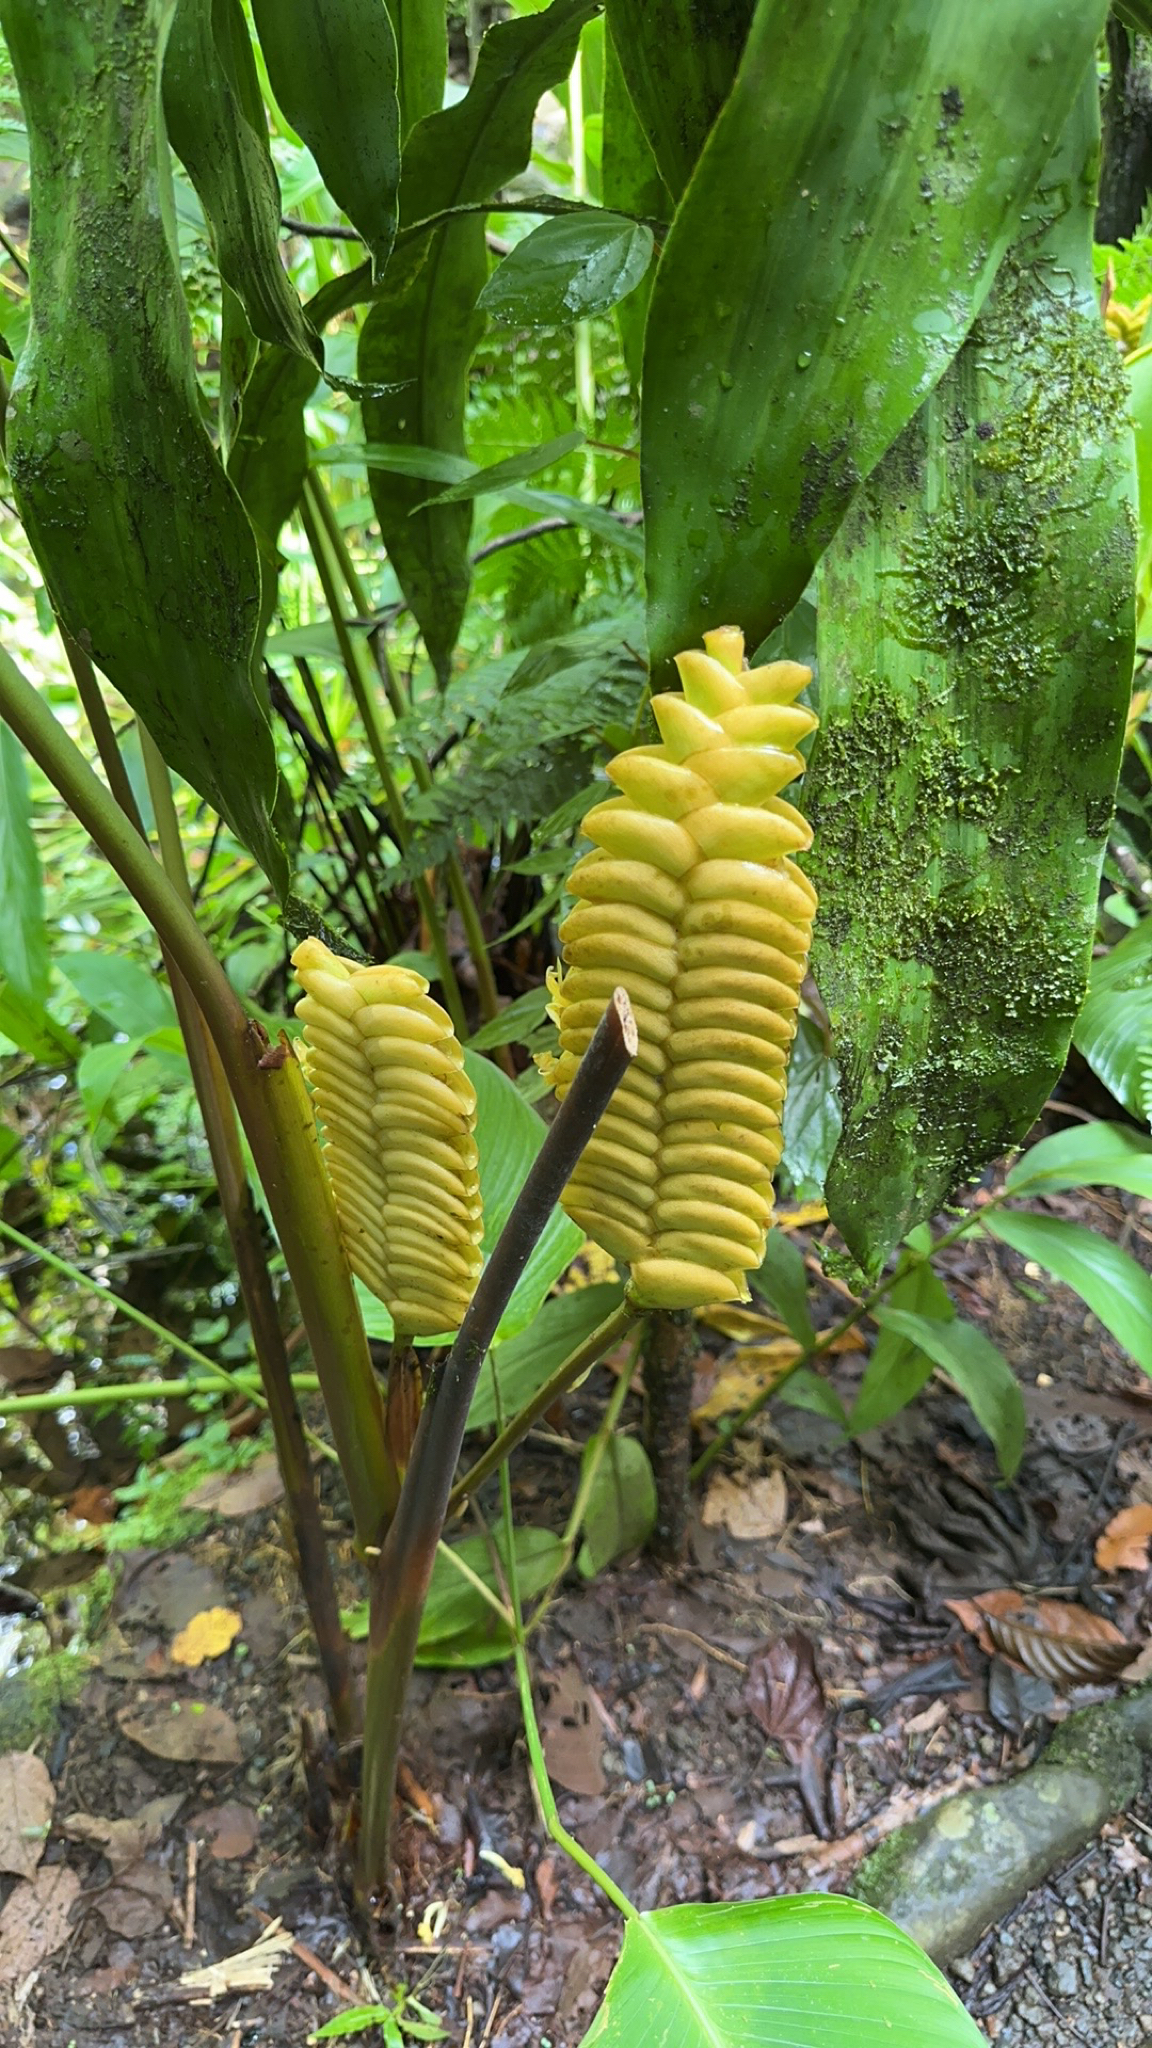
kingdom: Plantae
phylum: Tracheophyta
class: Liliopsida
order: Zingiberales
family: Marantaceae
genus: Calathea
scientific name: Calathea crotalifera
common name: Rattlesnake plant
